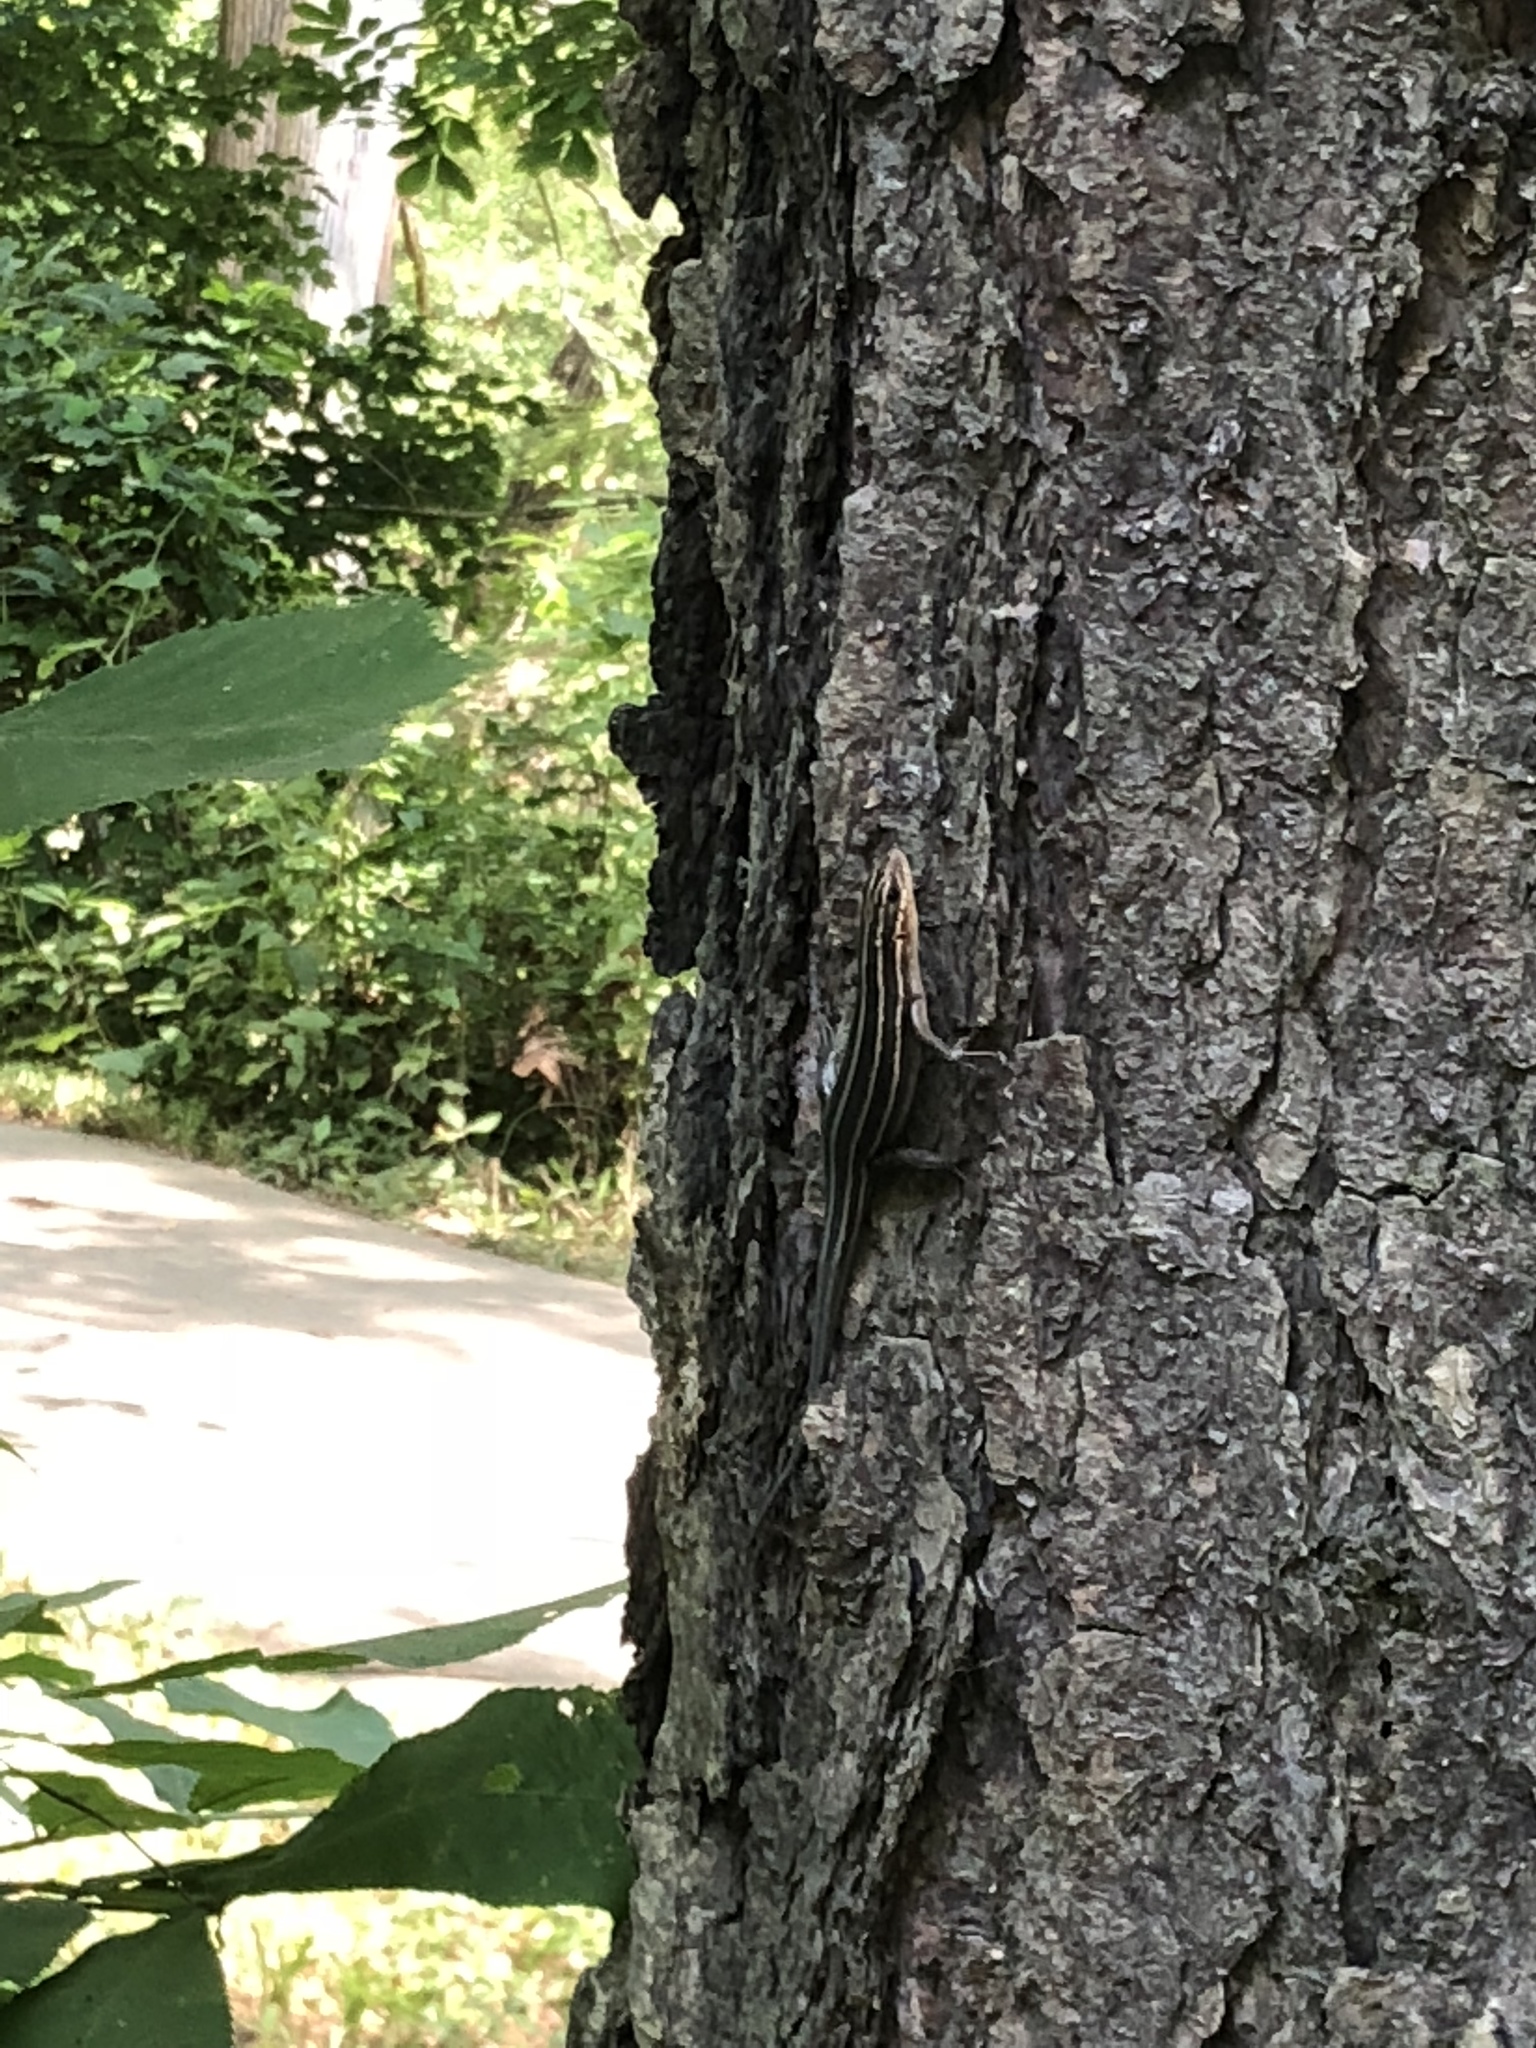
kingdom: Animalia
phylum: Chordata
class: Squamata
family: Scincidae
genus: Plestiodon
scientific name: Plestiodon fasciatus
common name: Five-lined skink
